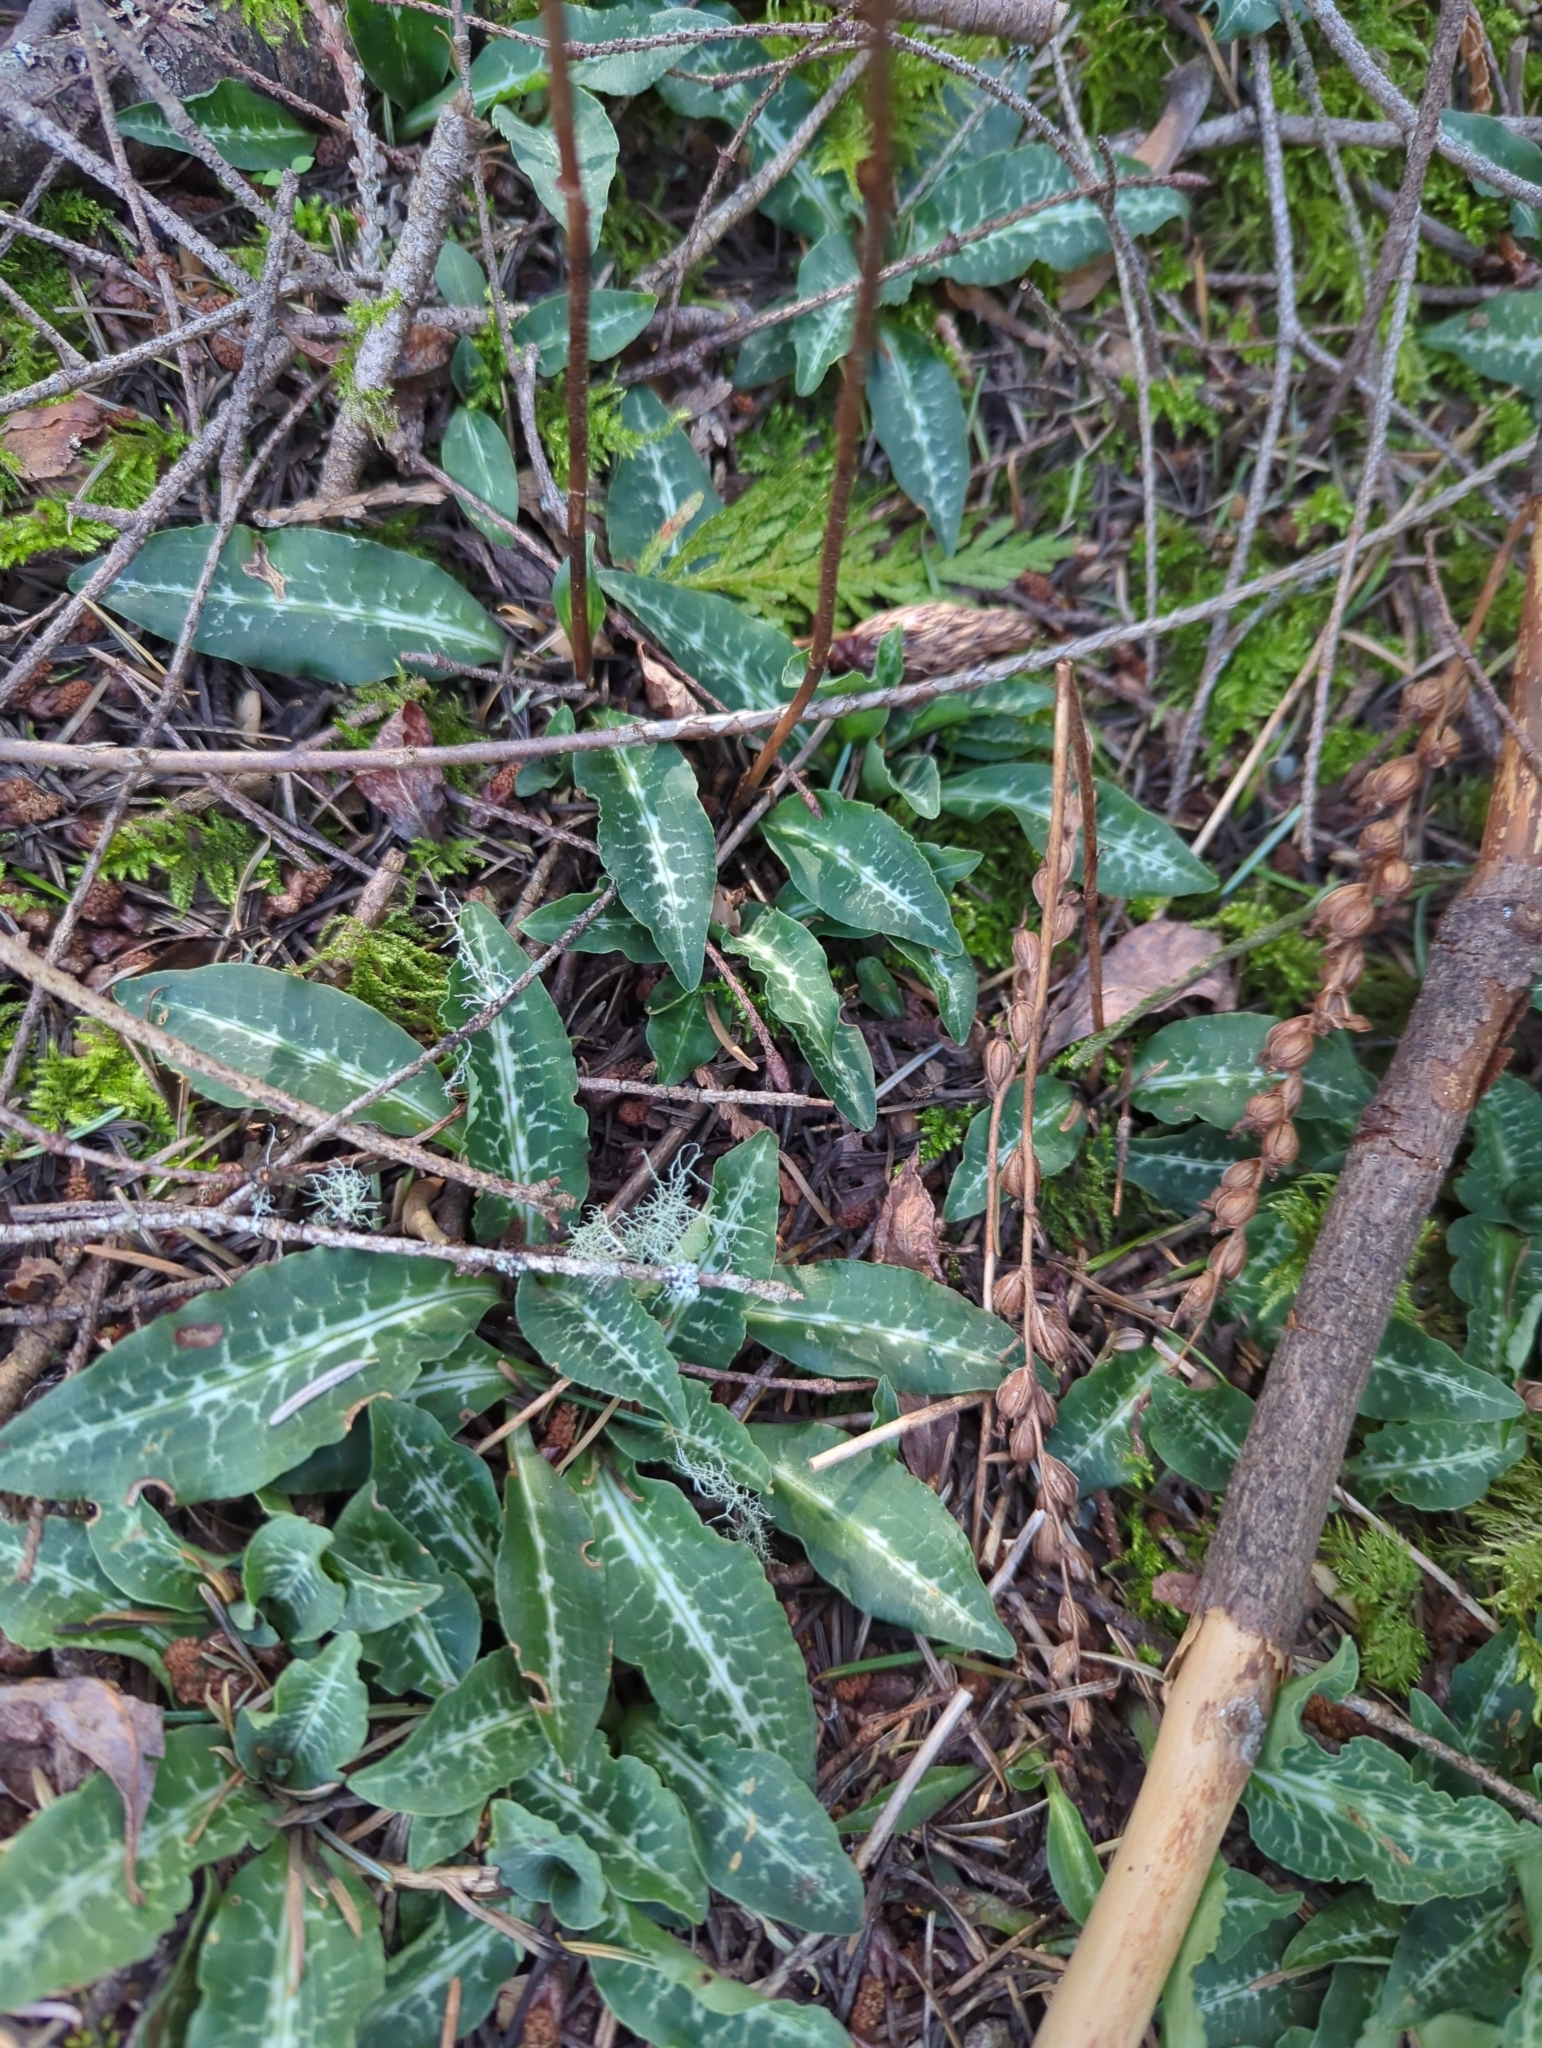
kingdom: Plantae
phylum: Tracheophyta
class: Liliopsida
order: Asparagales
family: Orchidaceae
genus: Goodyera
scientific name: Goodyera oblongifolia
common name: Giant rattlesnake-plantain
